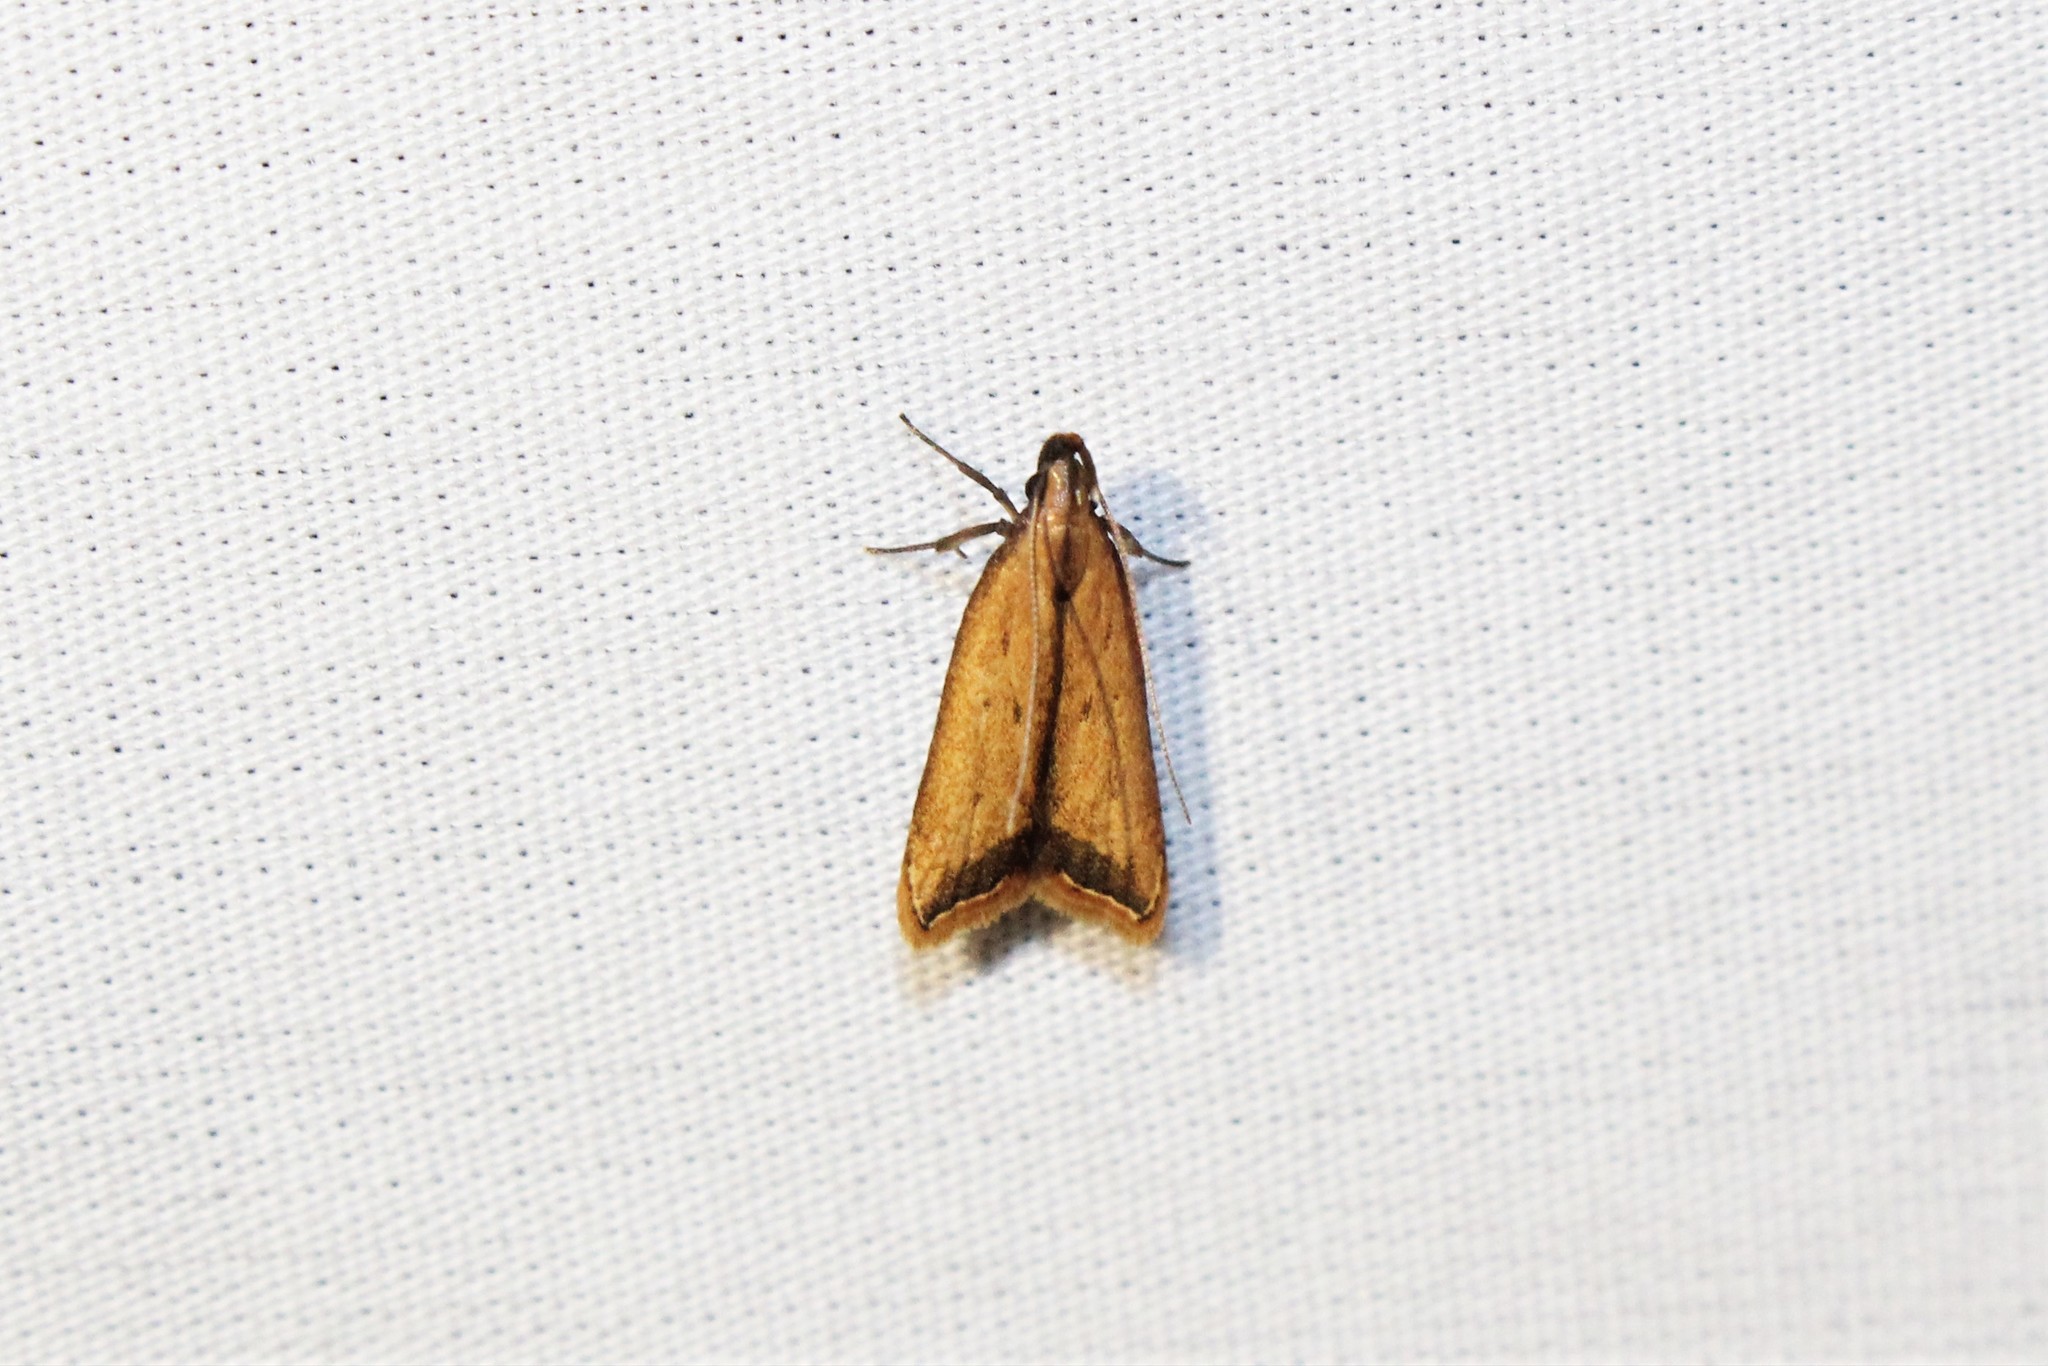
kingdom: Animalia
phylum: Arthropoda
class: Insecta
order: Lepidoptera
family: Gelechiidae
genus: Dichomeris
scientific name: Dichomeris heriguronis
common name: Black-edged dichomeris moth
